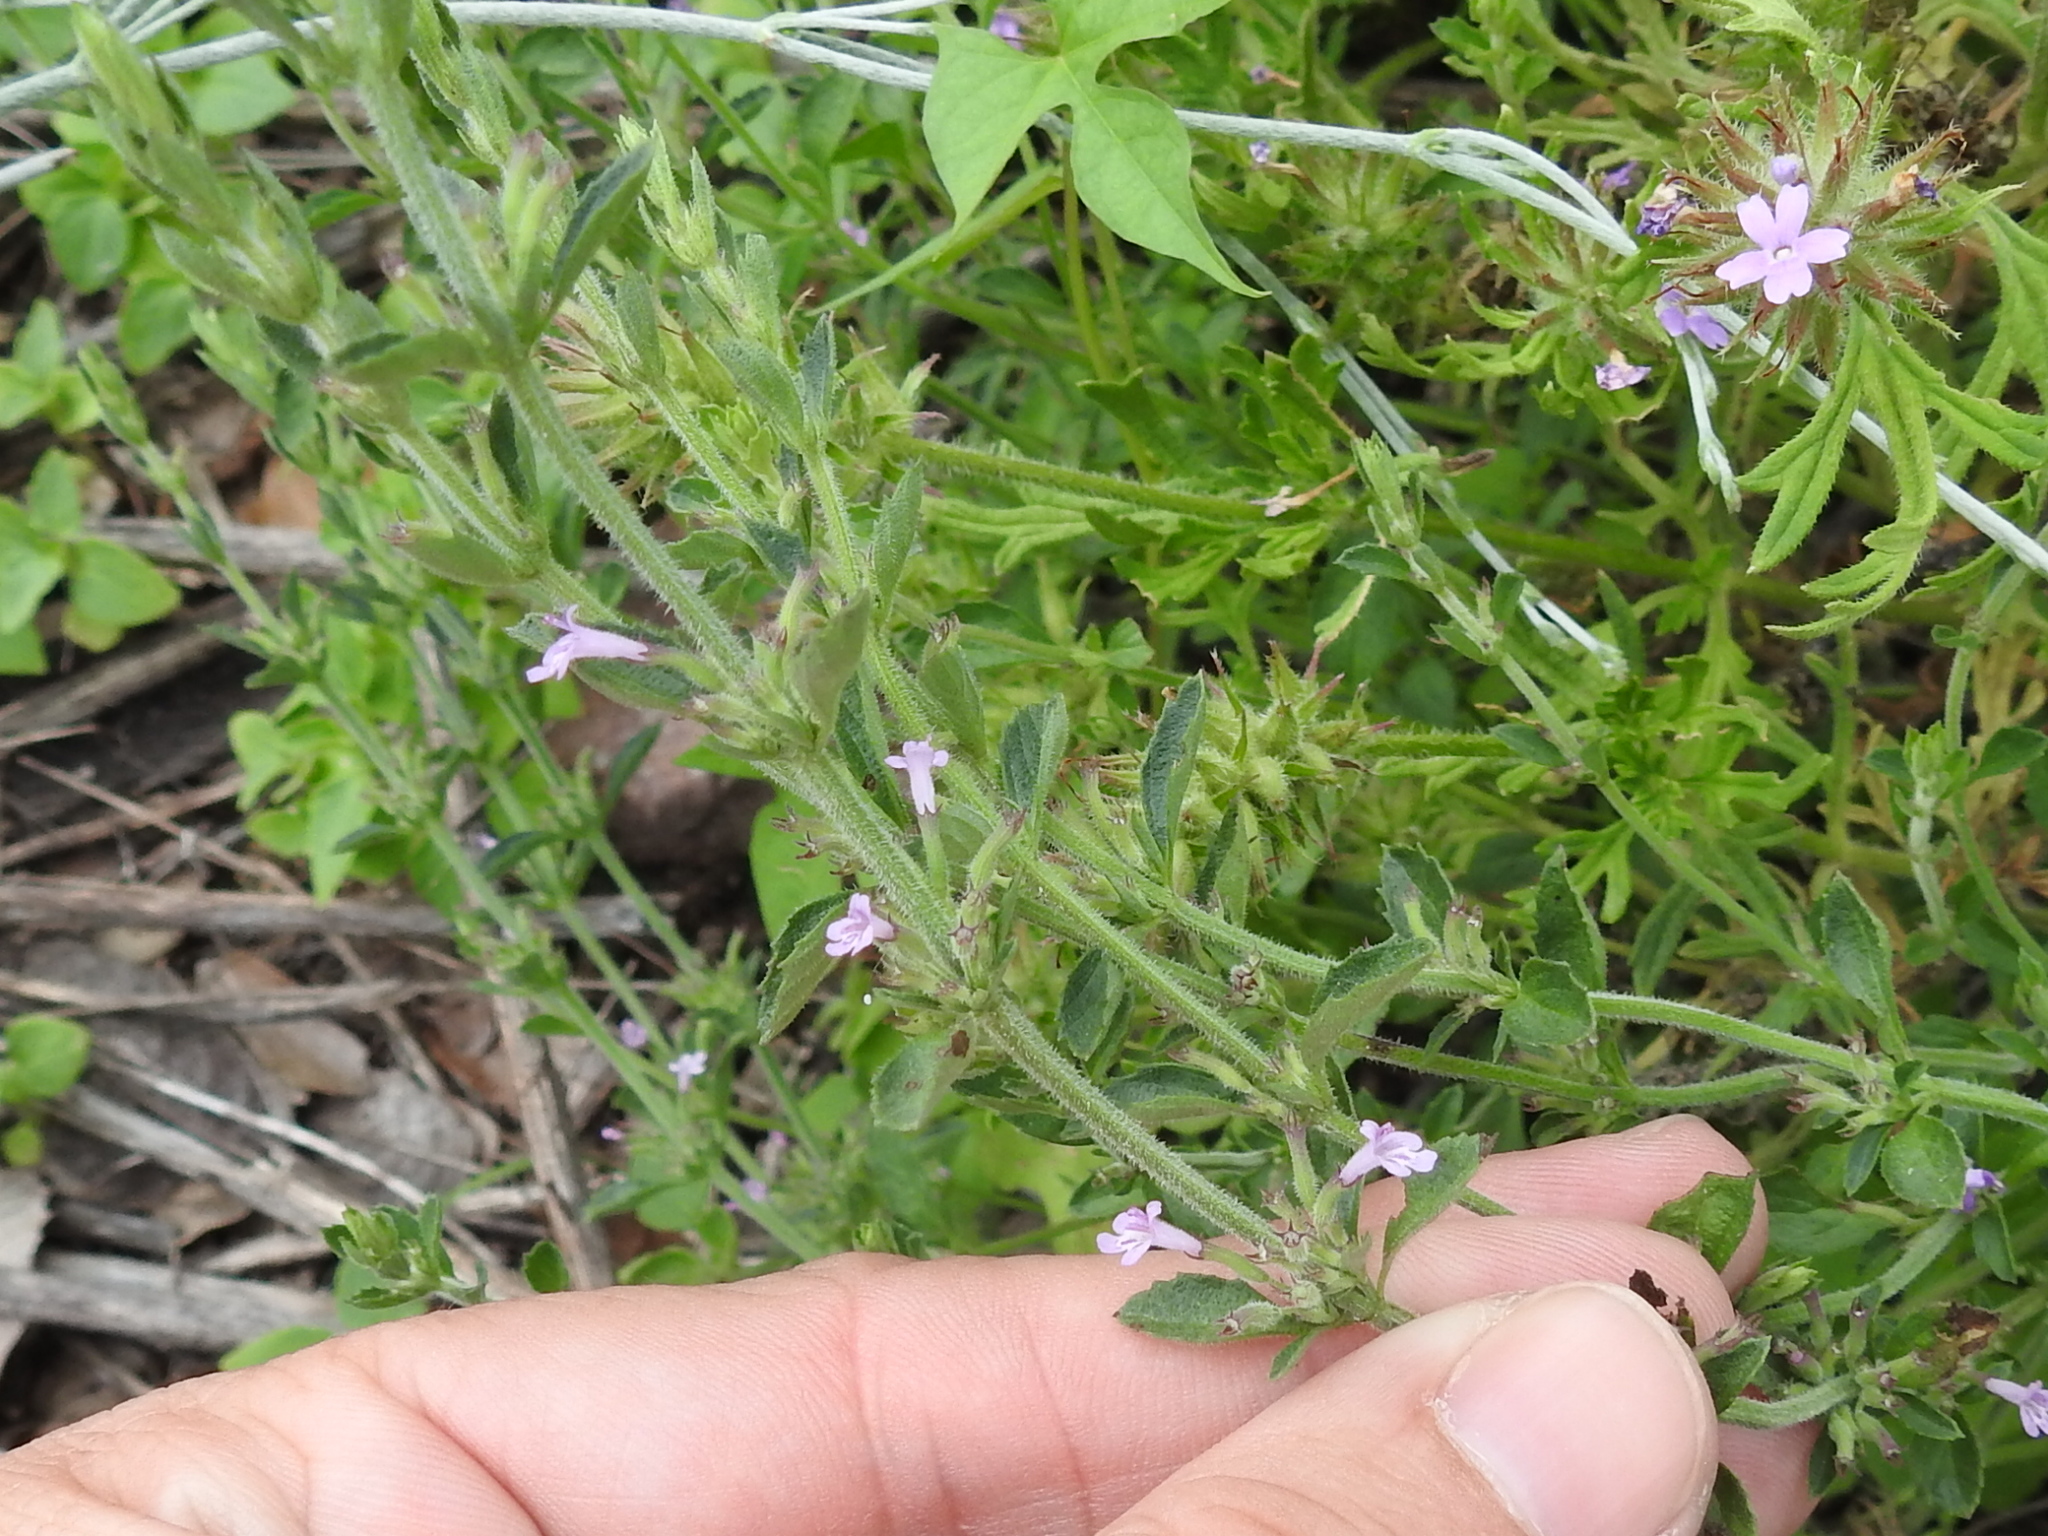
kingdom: Plantae
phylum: Tracheophyta
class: Magnoliopsida
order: Lamiales
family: Lamiaceae
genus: Hedeoma
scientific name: Hedeoma dentata
